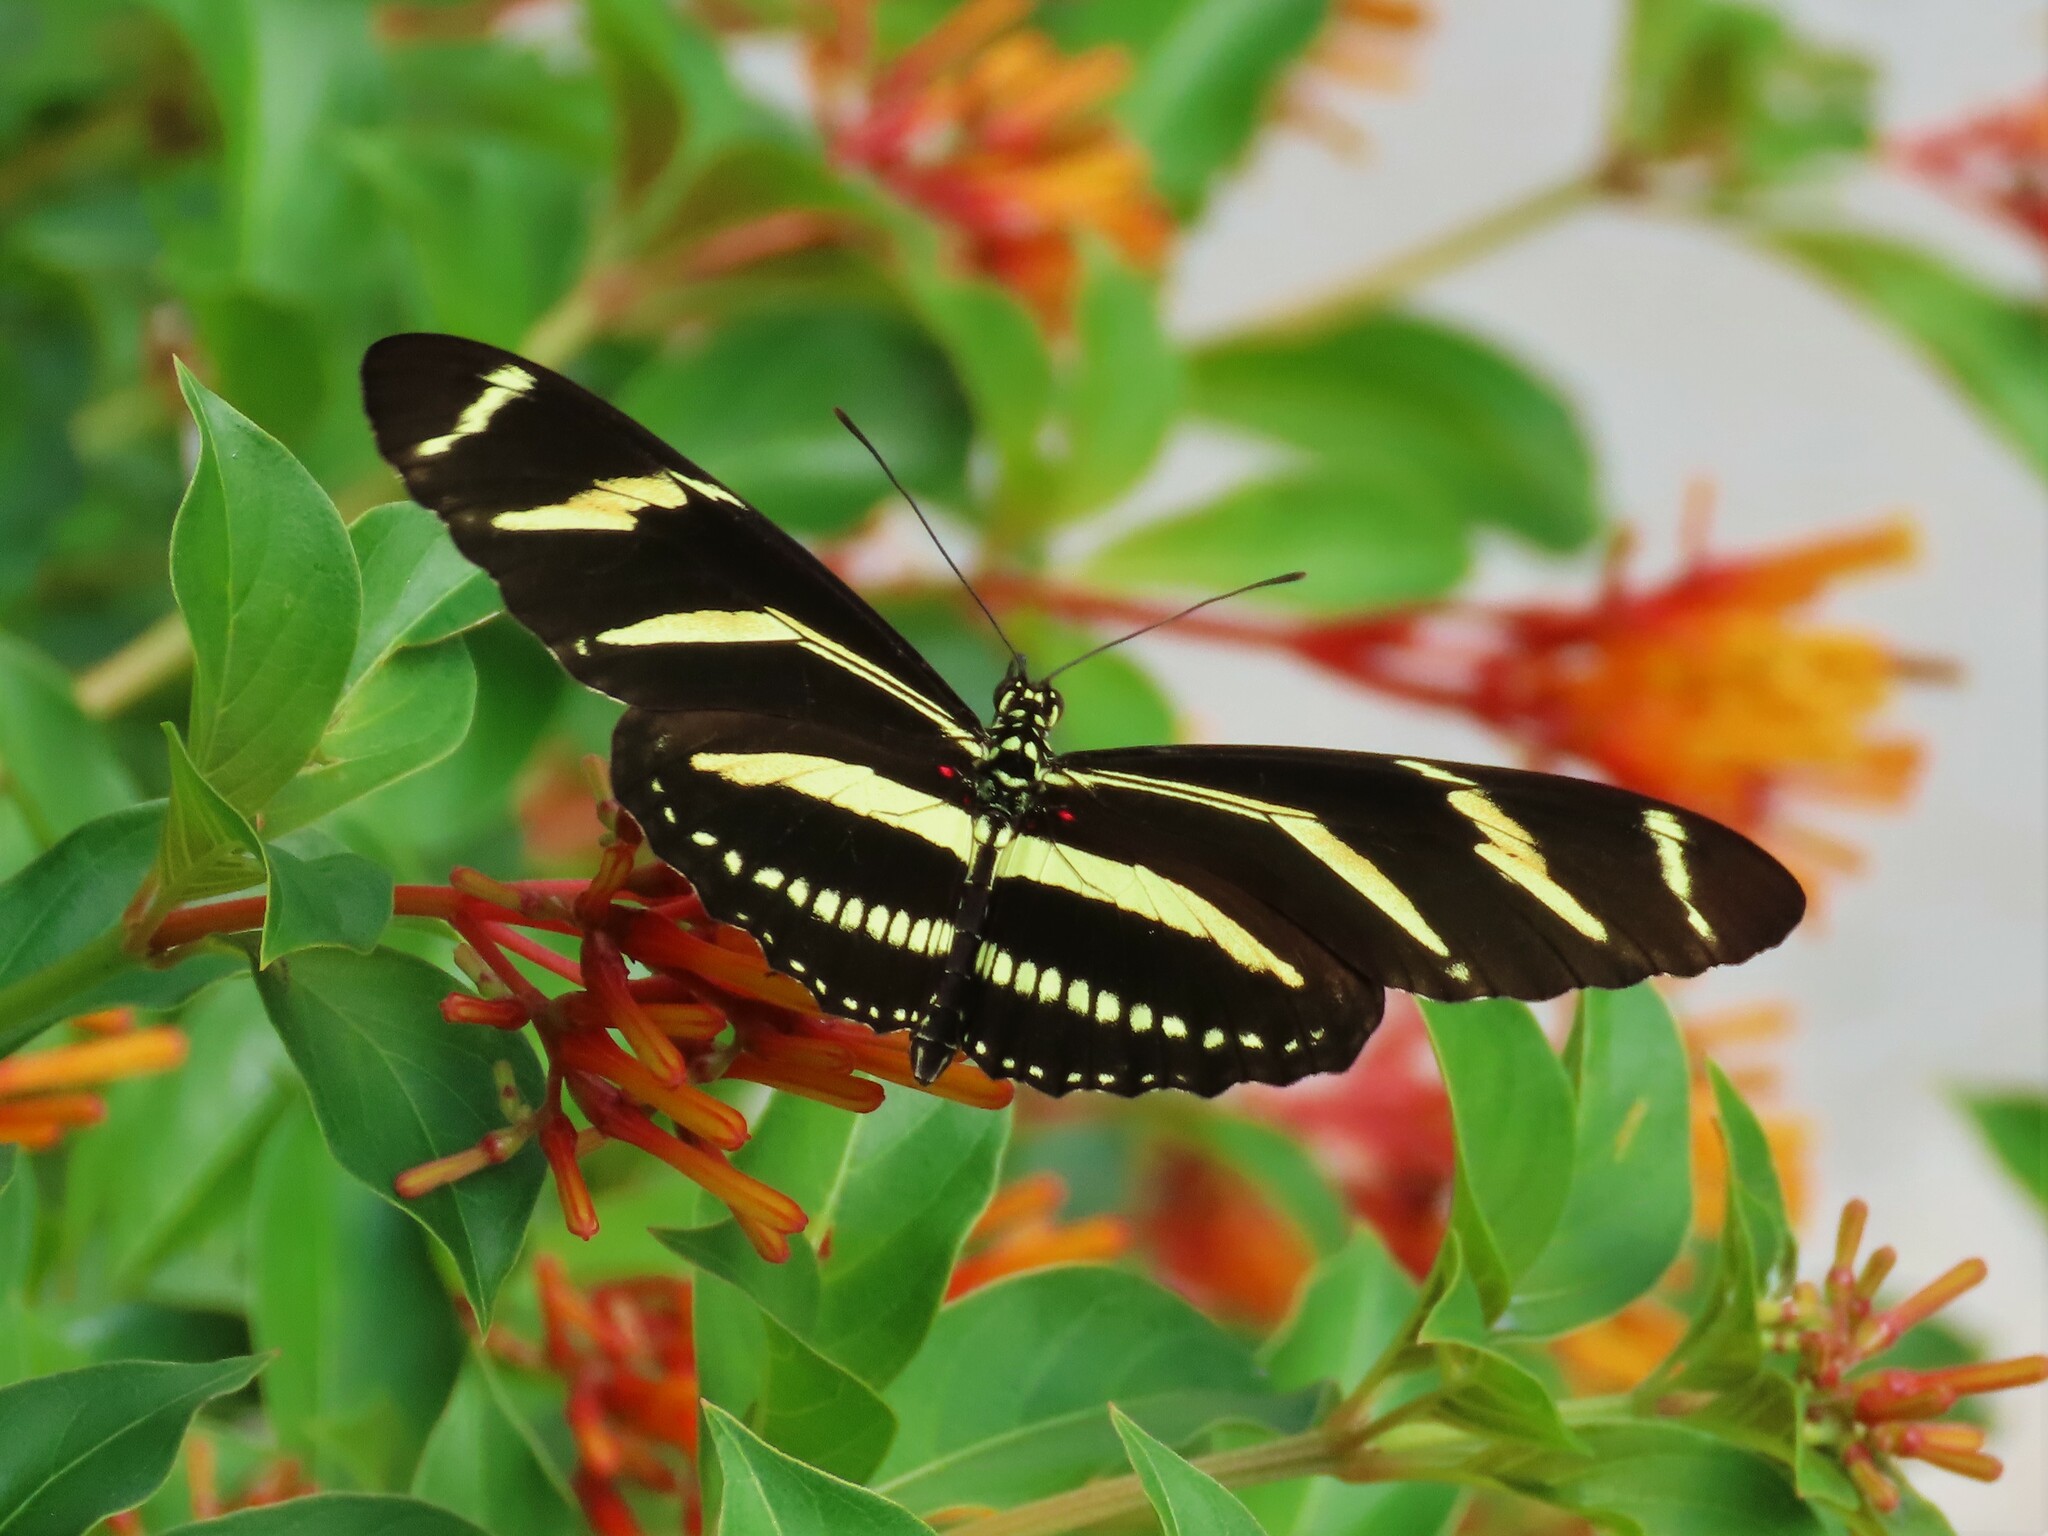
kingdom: Animalia
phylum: Arthropoda
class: Insecta
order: Lepidoptera
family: Nymphalidae
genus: Heliconius
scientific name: Heliconius charithonia
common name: Zebra long wing
